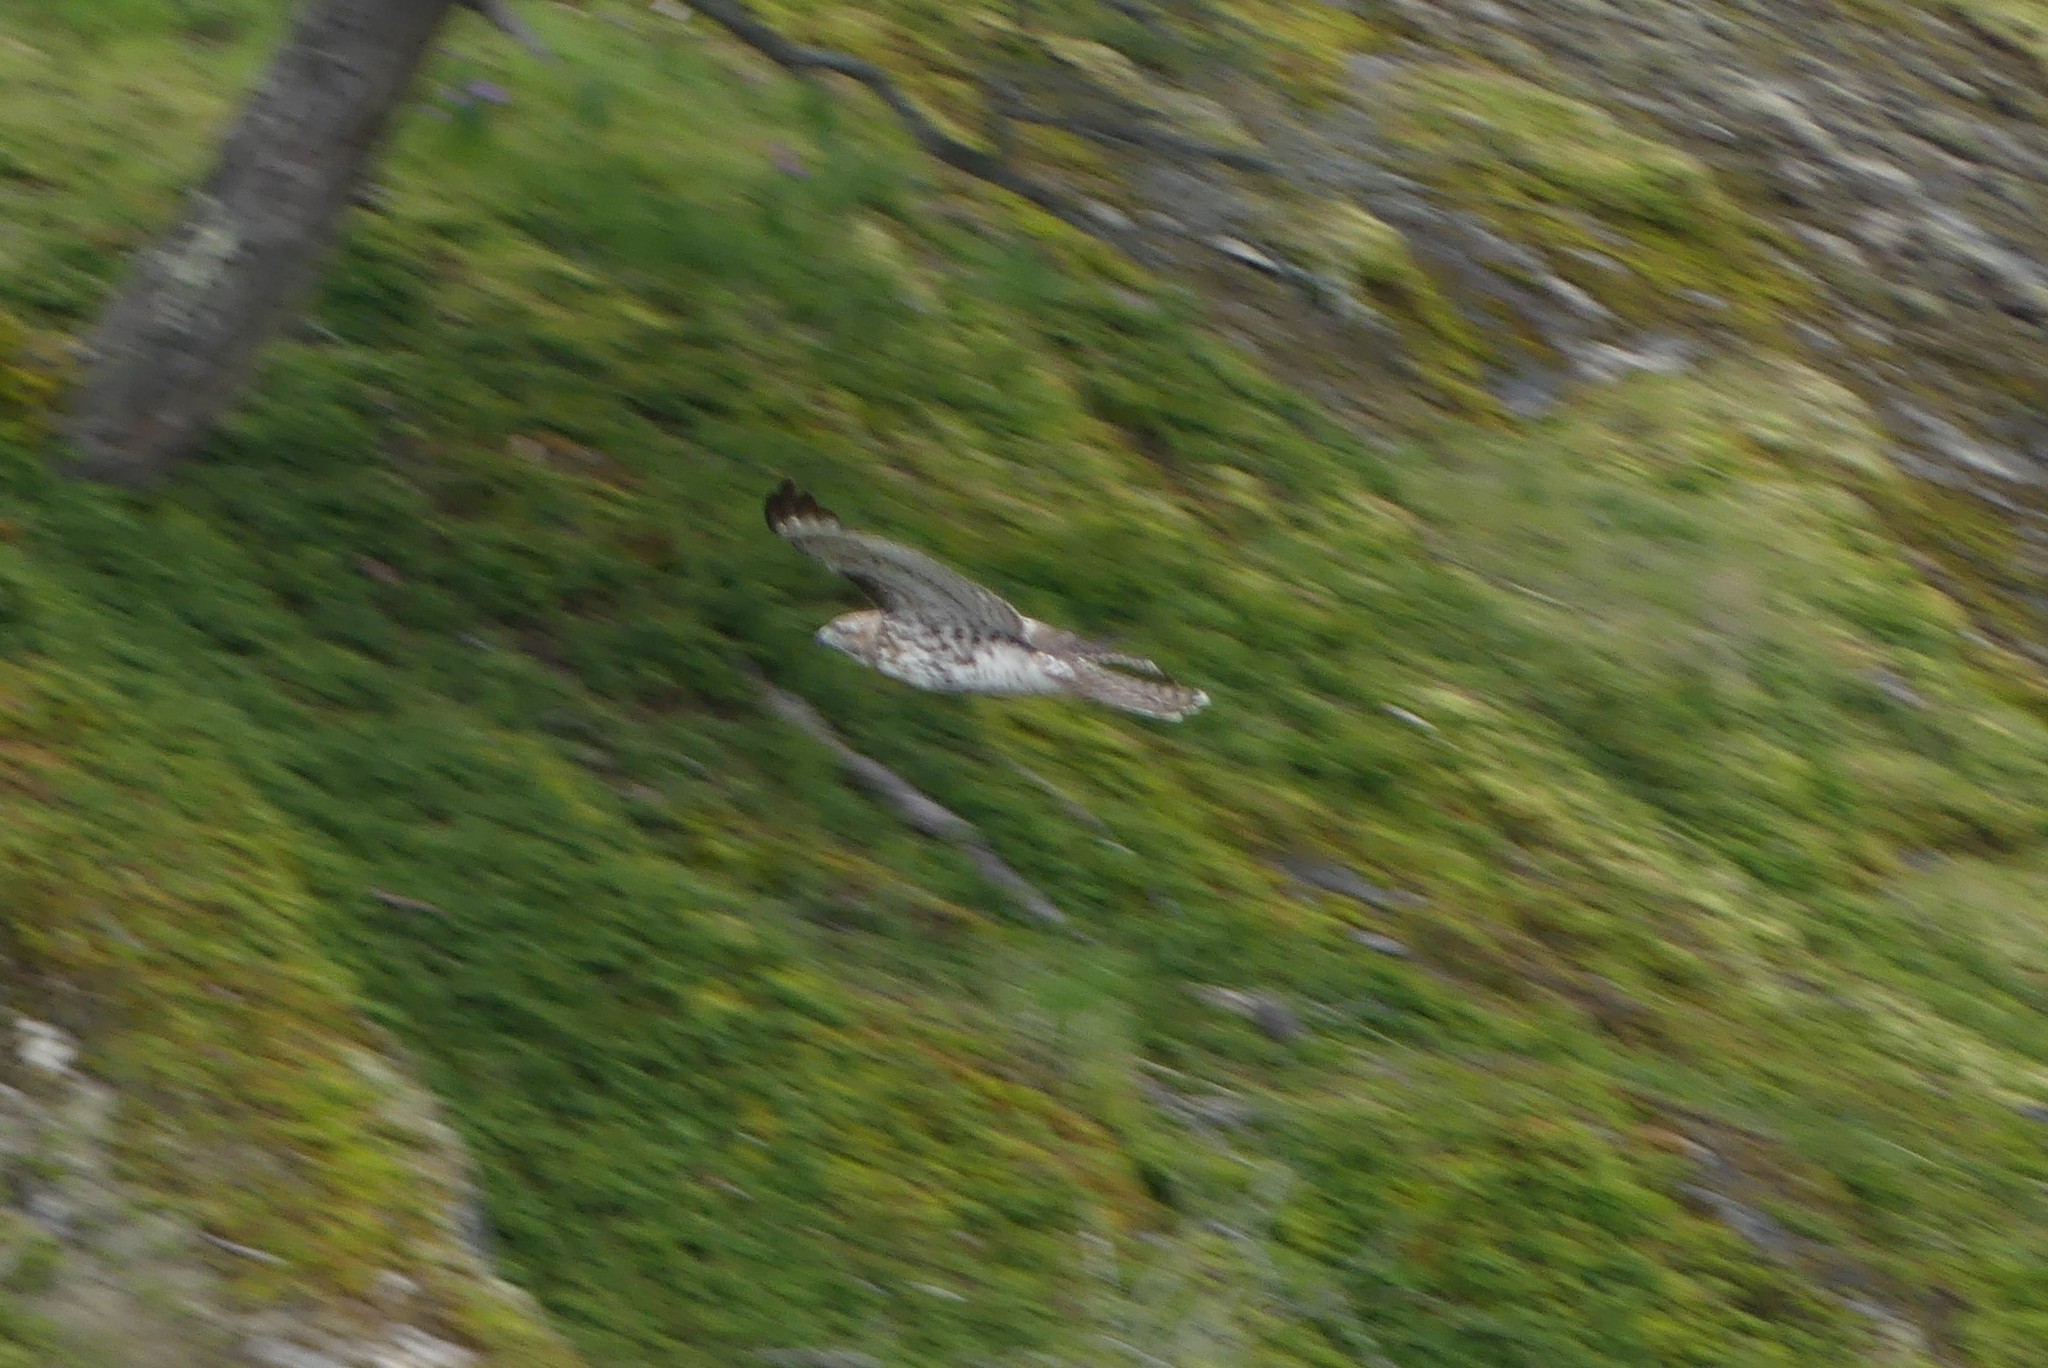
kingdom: Animalia
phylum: Chordata
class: Aves
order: Accipitriformes
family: Accipitridae
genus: Buteo
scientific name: Buteo jamaicensis
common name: Red-tailed hawk
